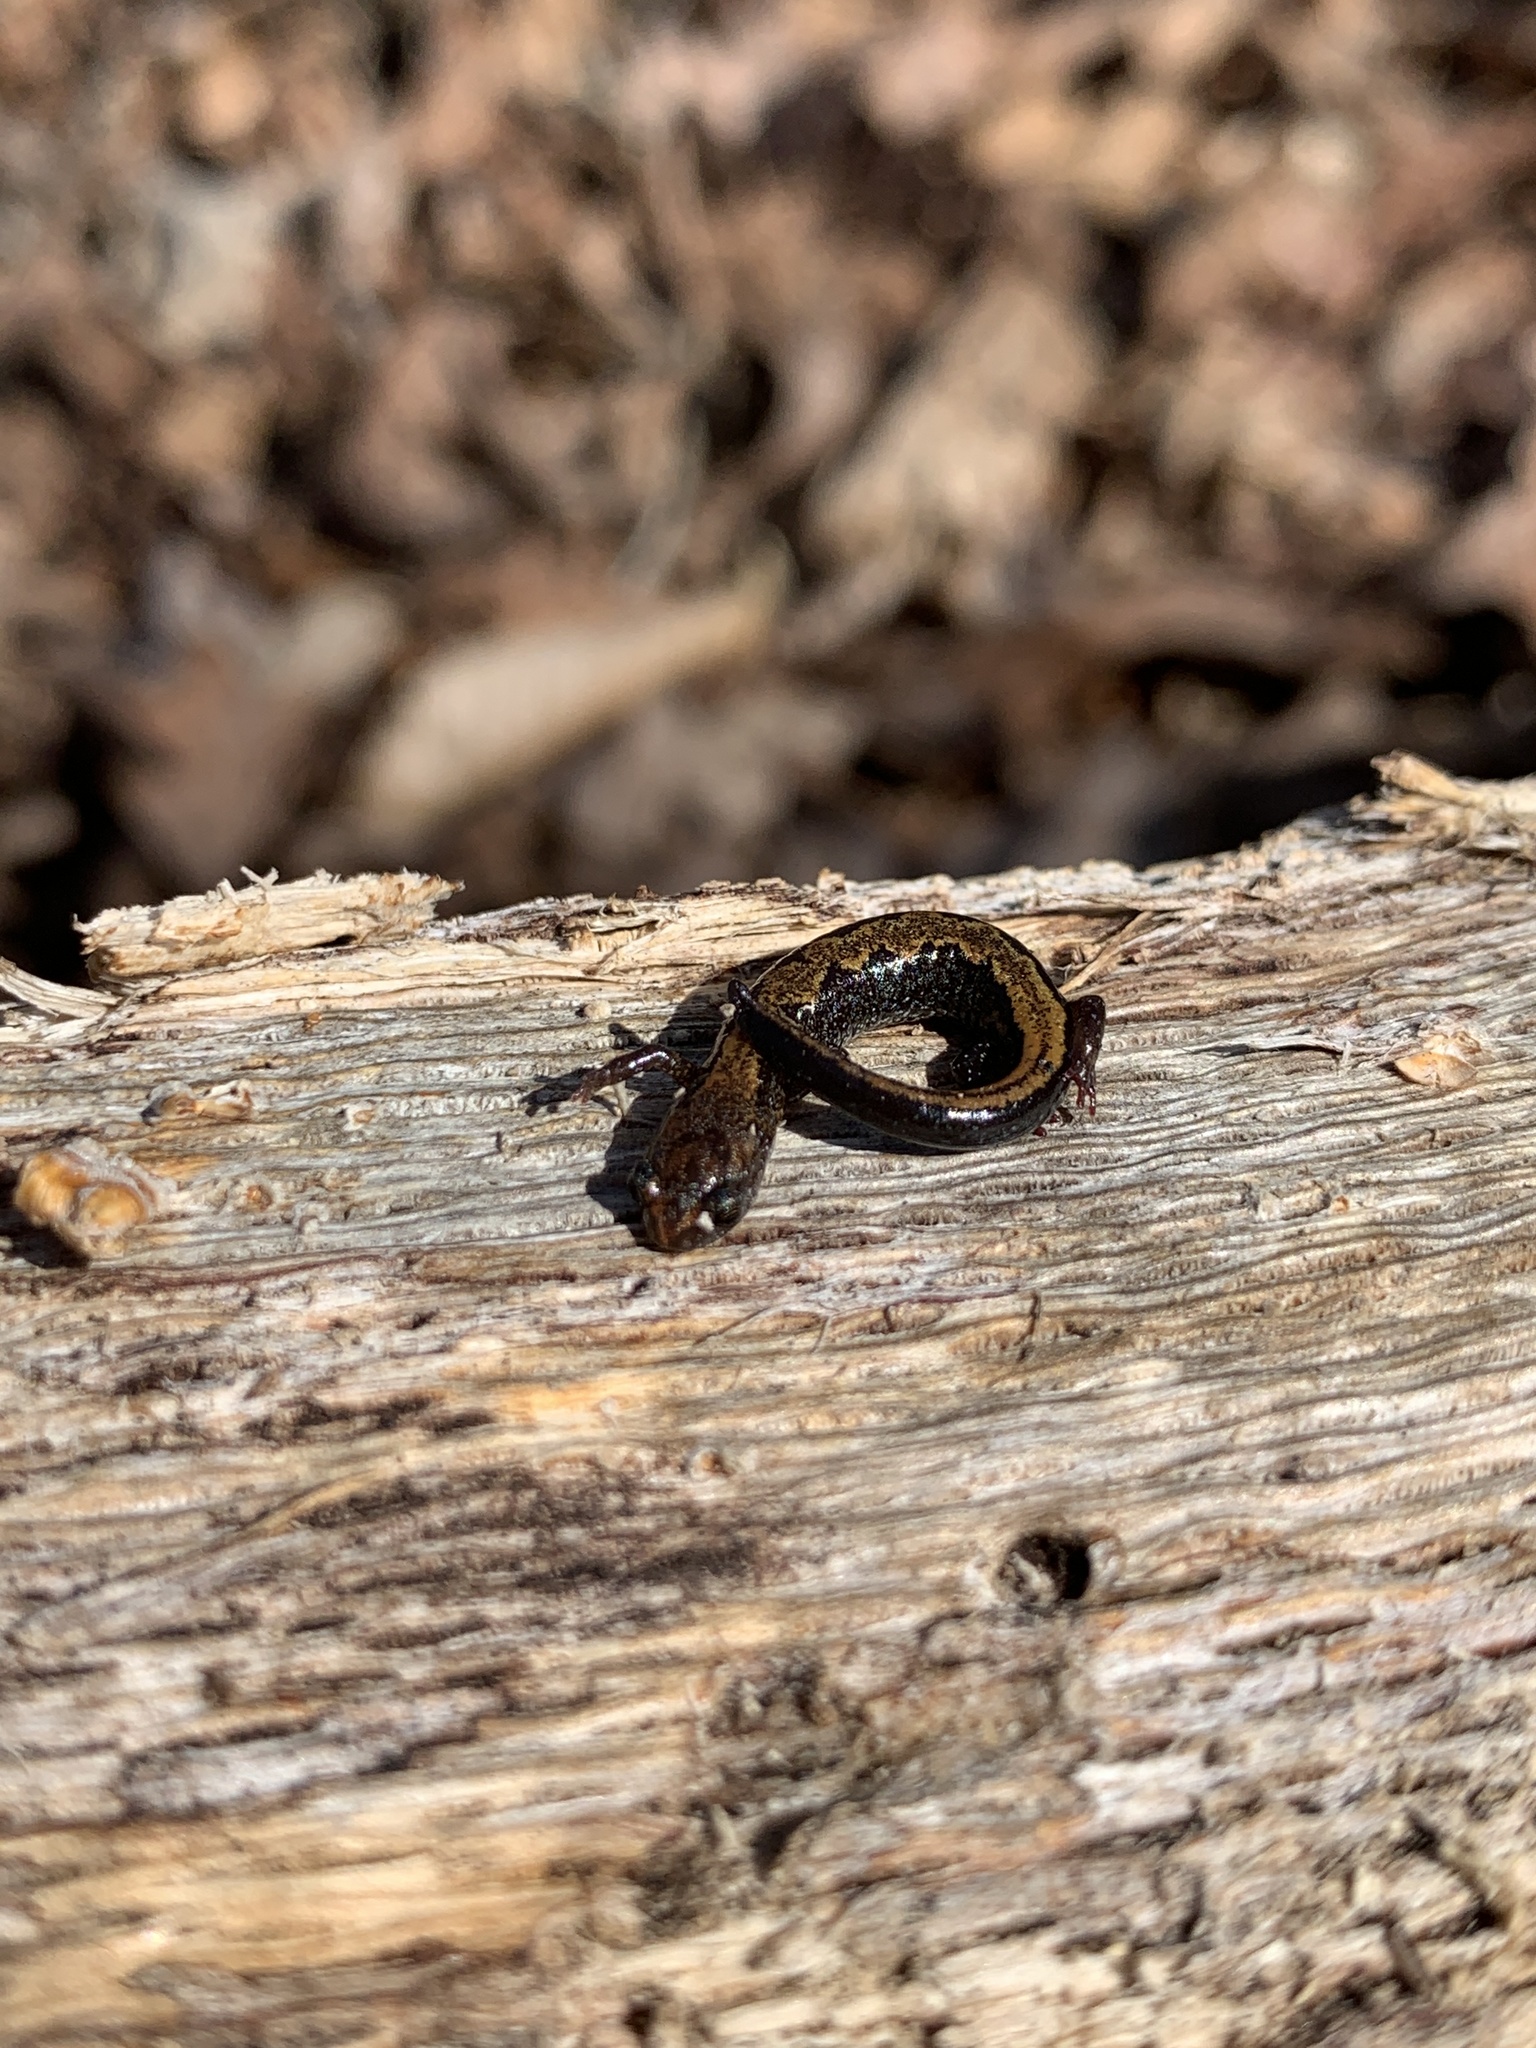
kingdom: Animalia
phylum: Chordata
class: Amphibia
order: Caudata
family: Plethodontidae
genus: Plethodon
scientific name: Plethodon dorsalis
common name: Northern zigzag salamander
